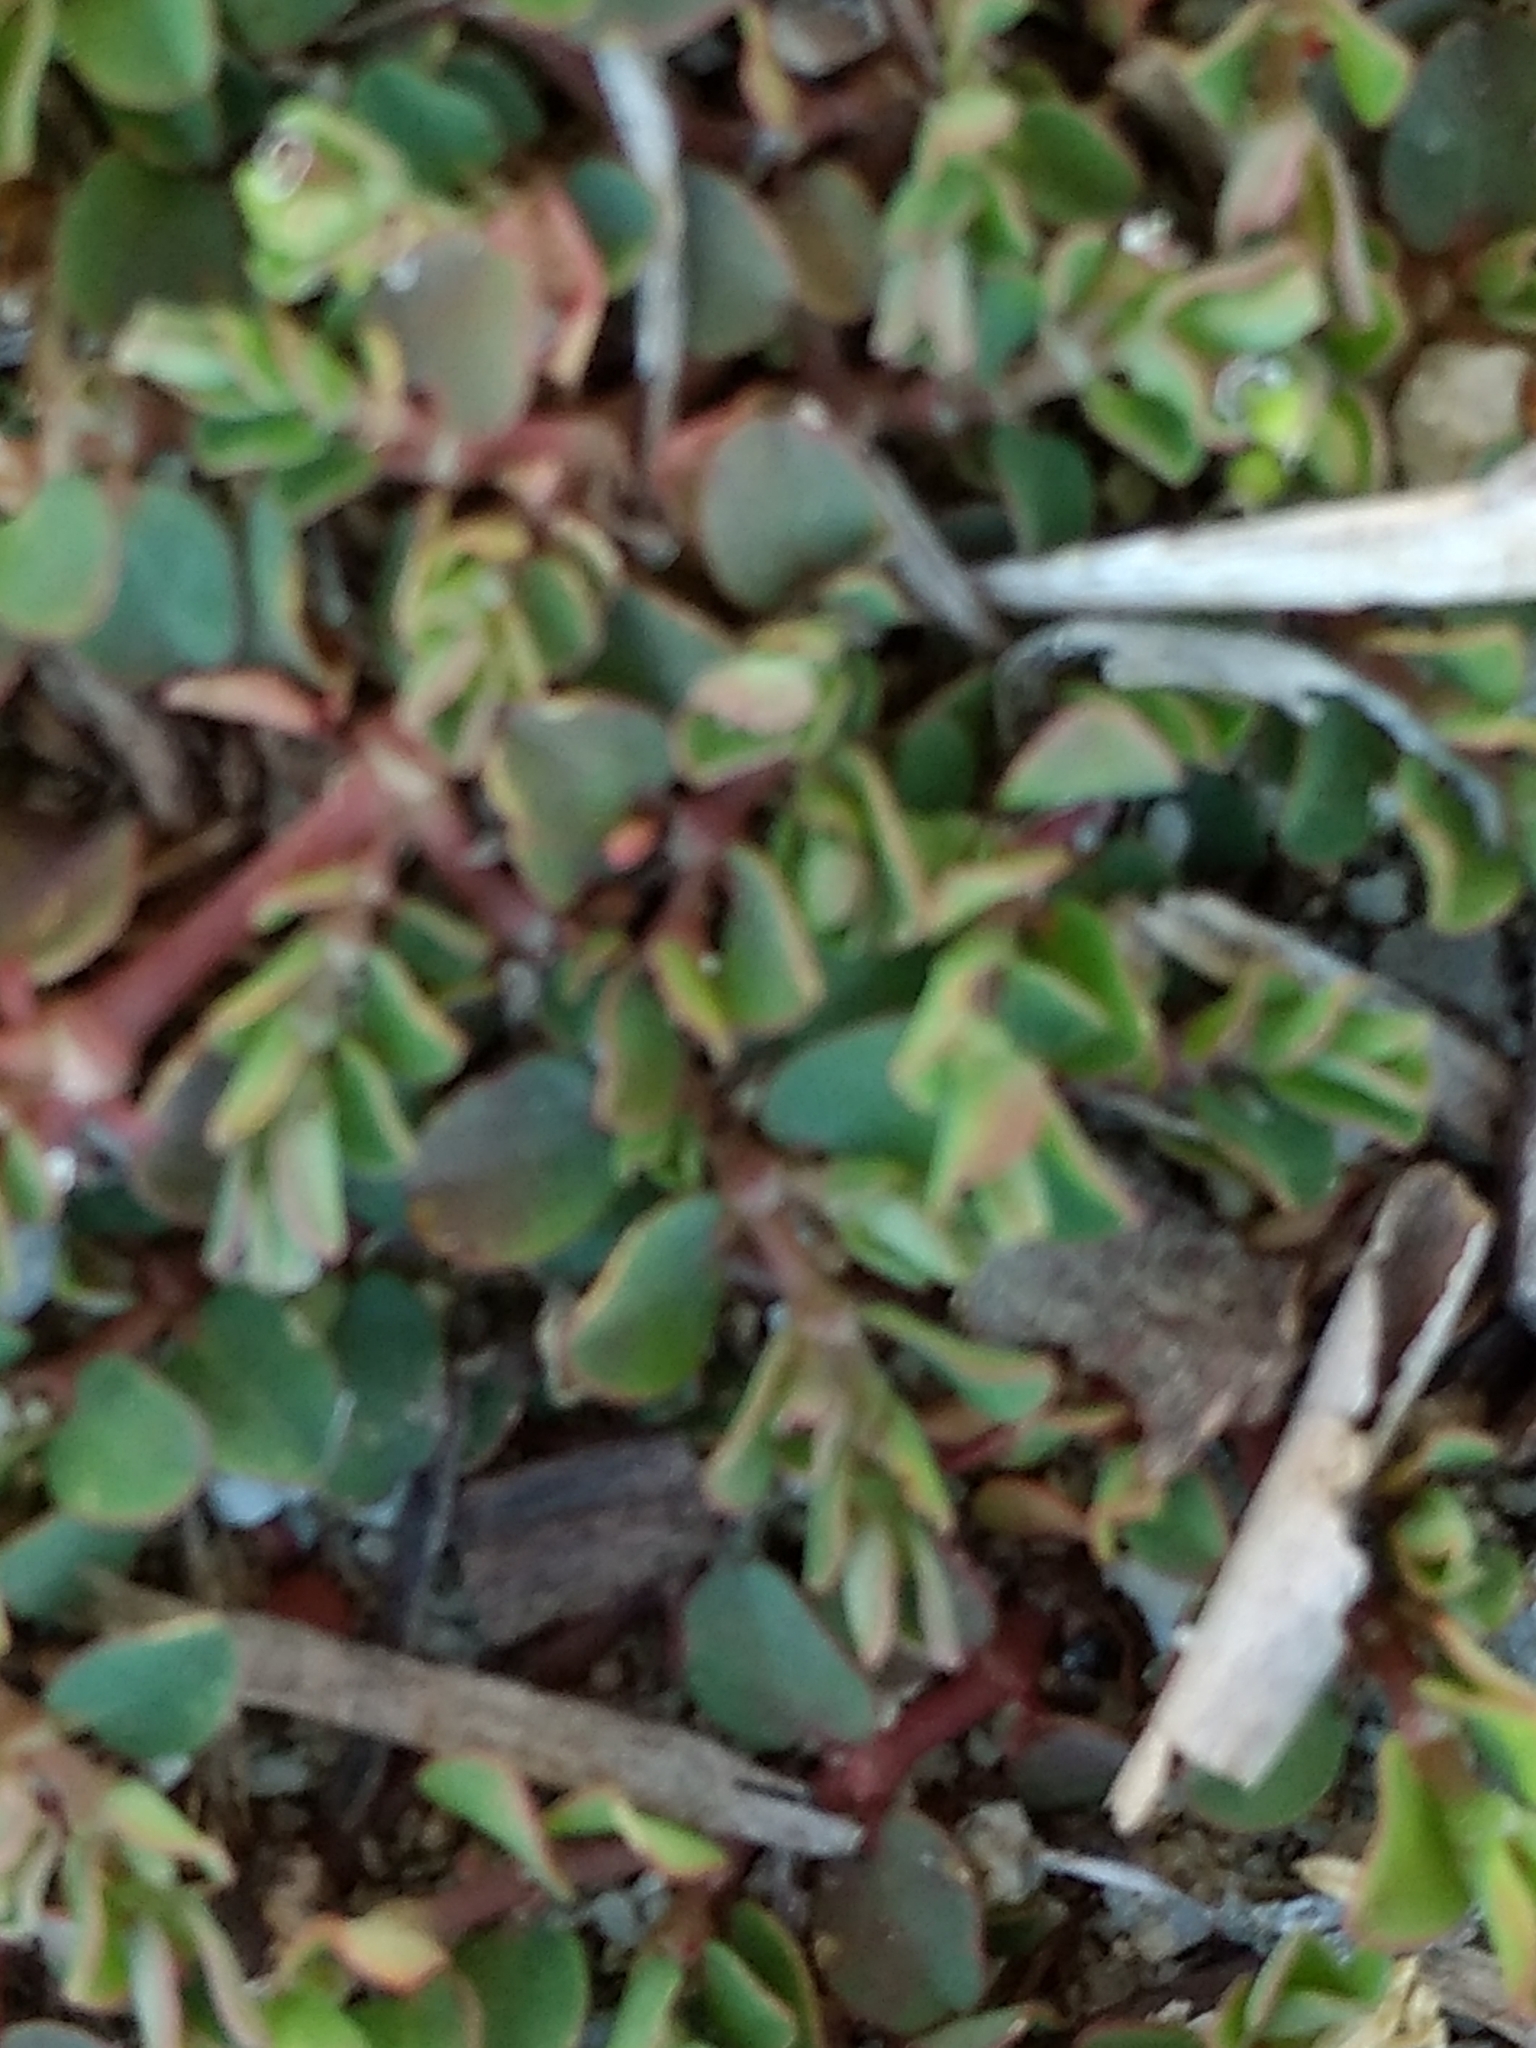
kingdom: Plantae
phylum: Tracheophyta
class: Magnoliopsida
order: Malpighiales
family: Euphorbiaceae
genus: Euphorbia
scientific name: Euphorbia serpens
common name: Matted sandmat
